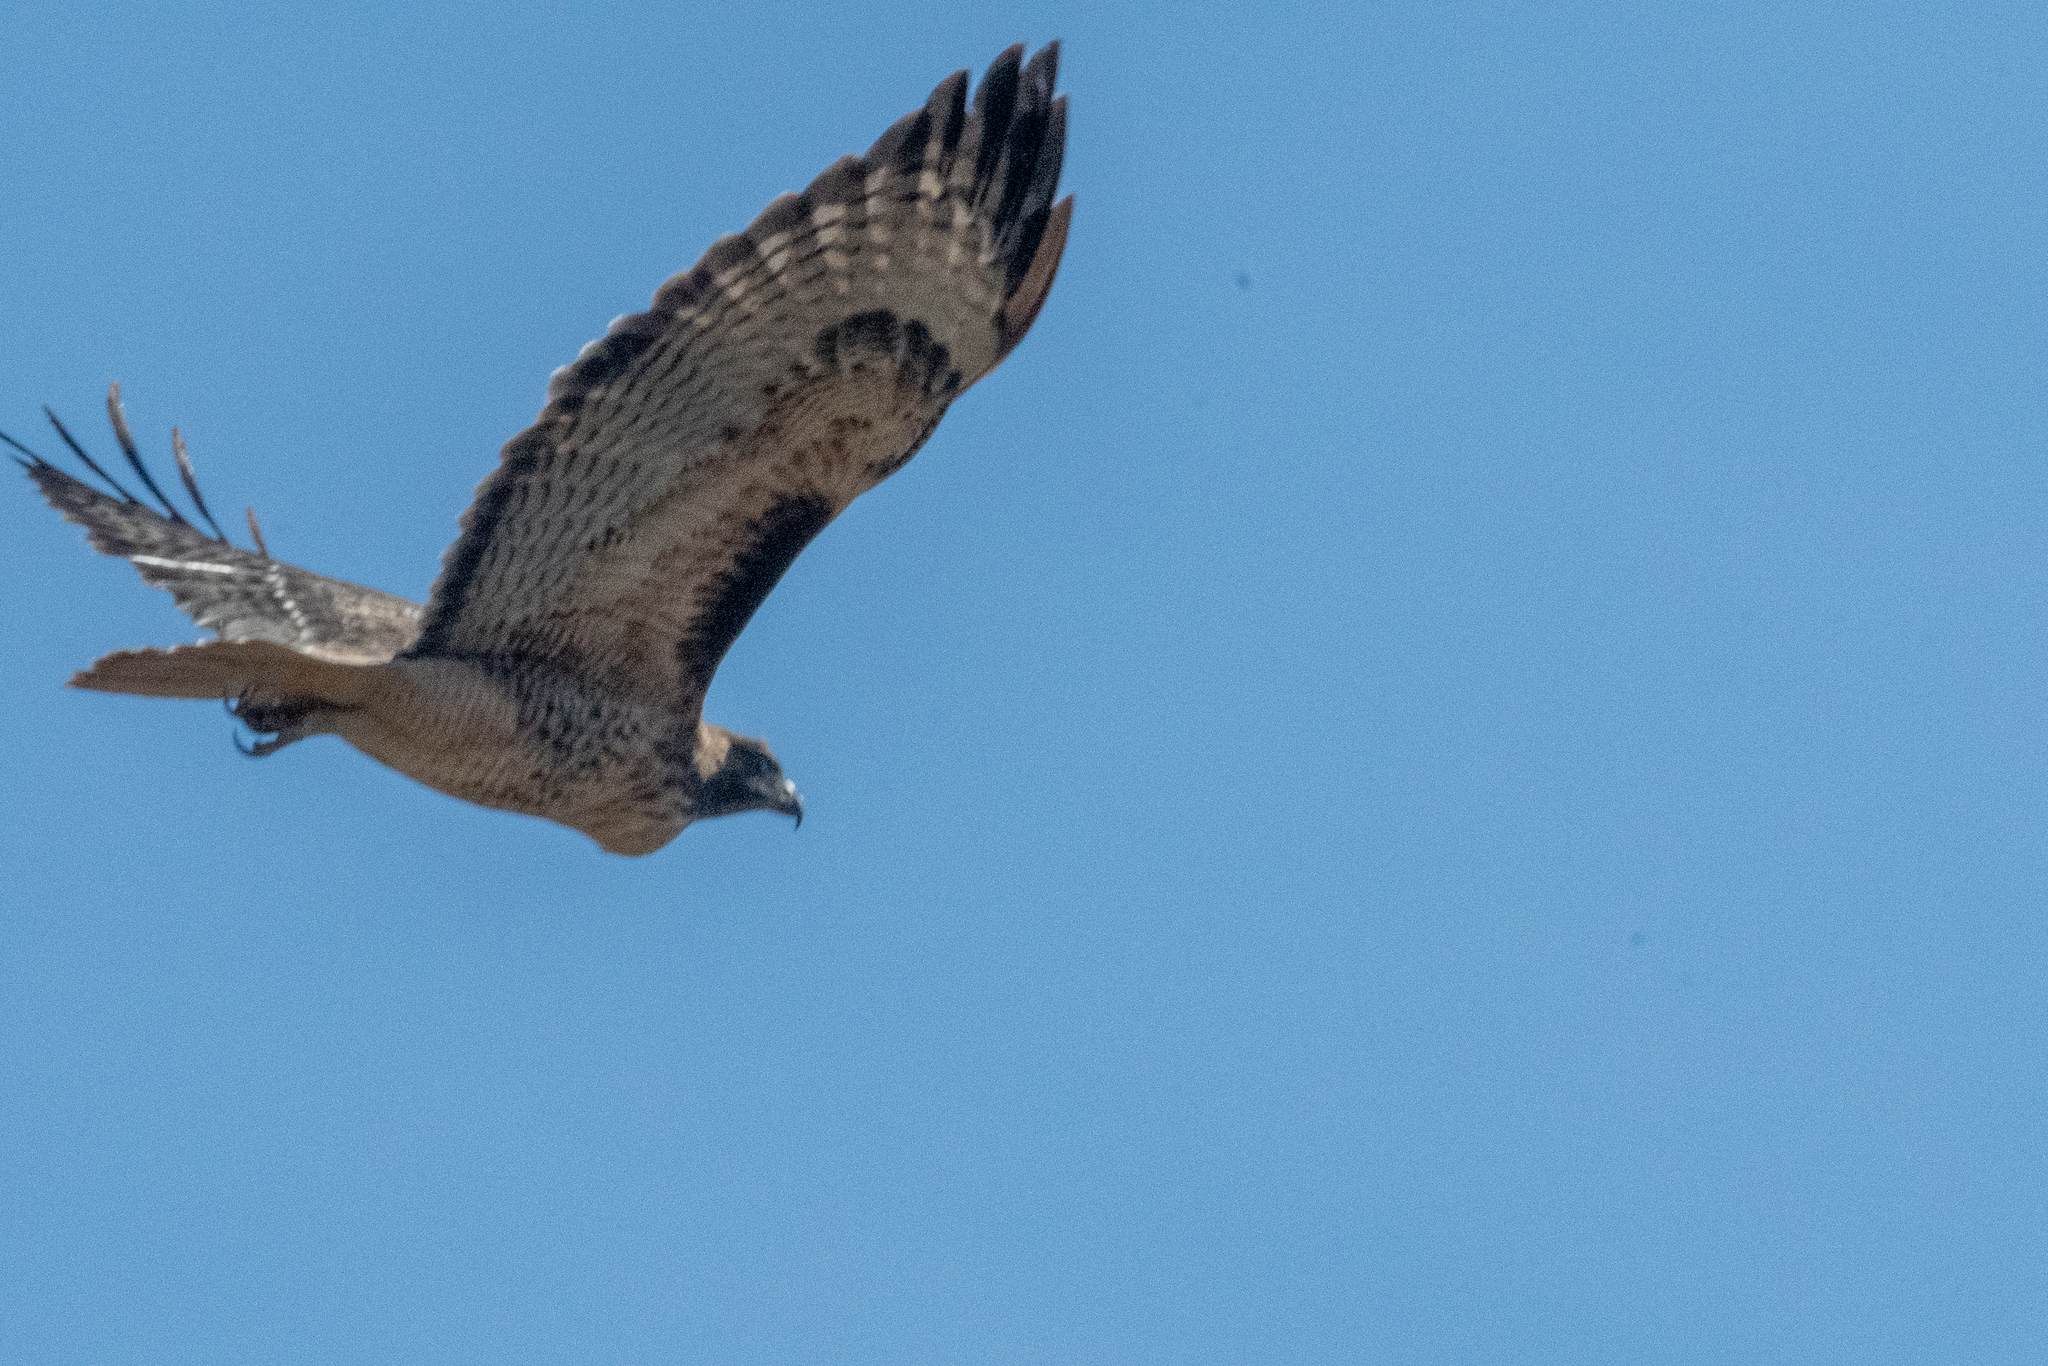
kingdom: Animalia
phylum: Chordata
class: Aves
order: Accipitriformes
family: Accipitridae
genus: Buteo
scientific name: Buteo jamaicensis
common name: Red-tailed hawk
